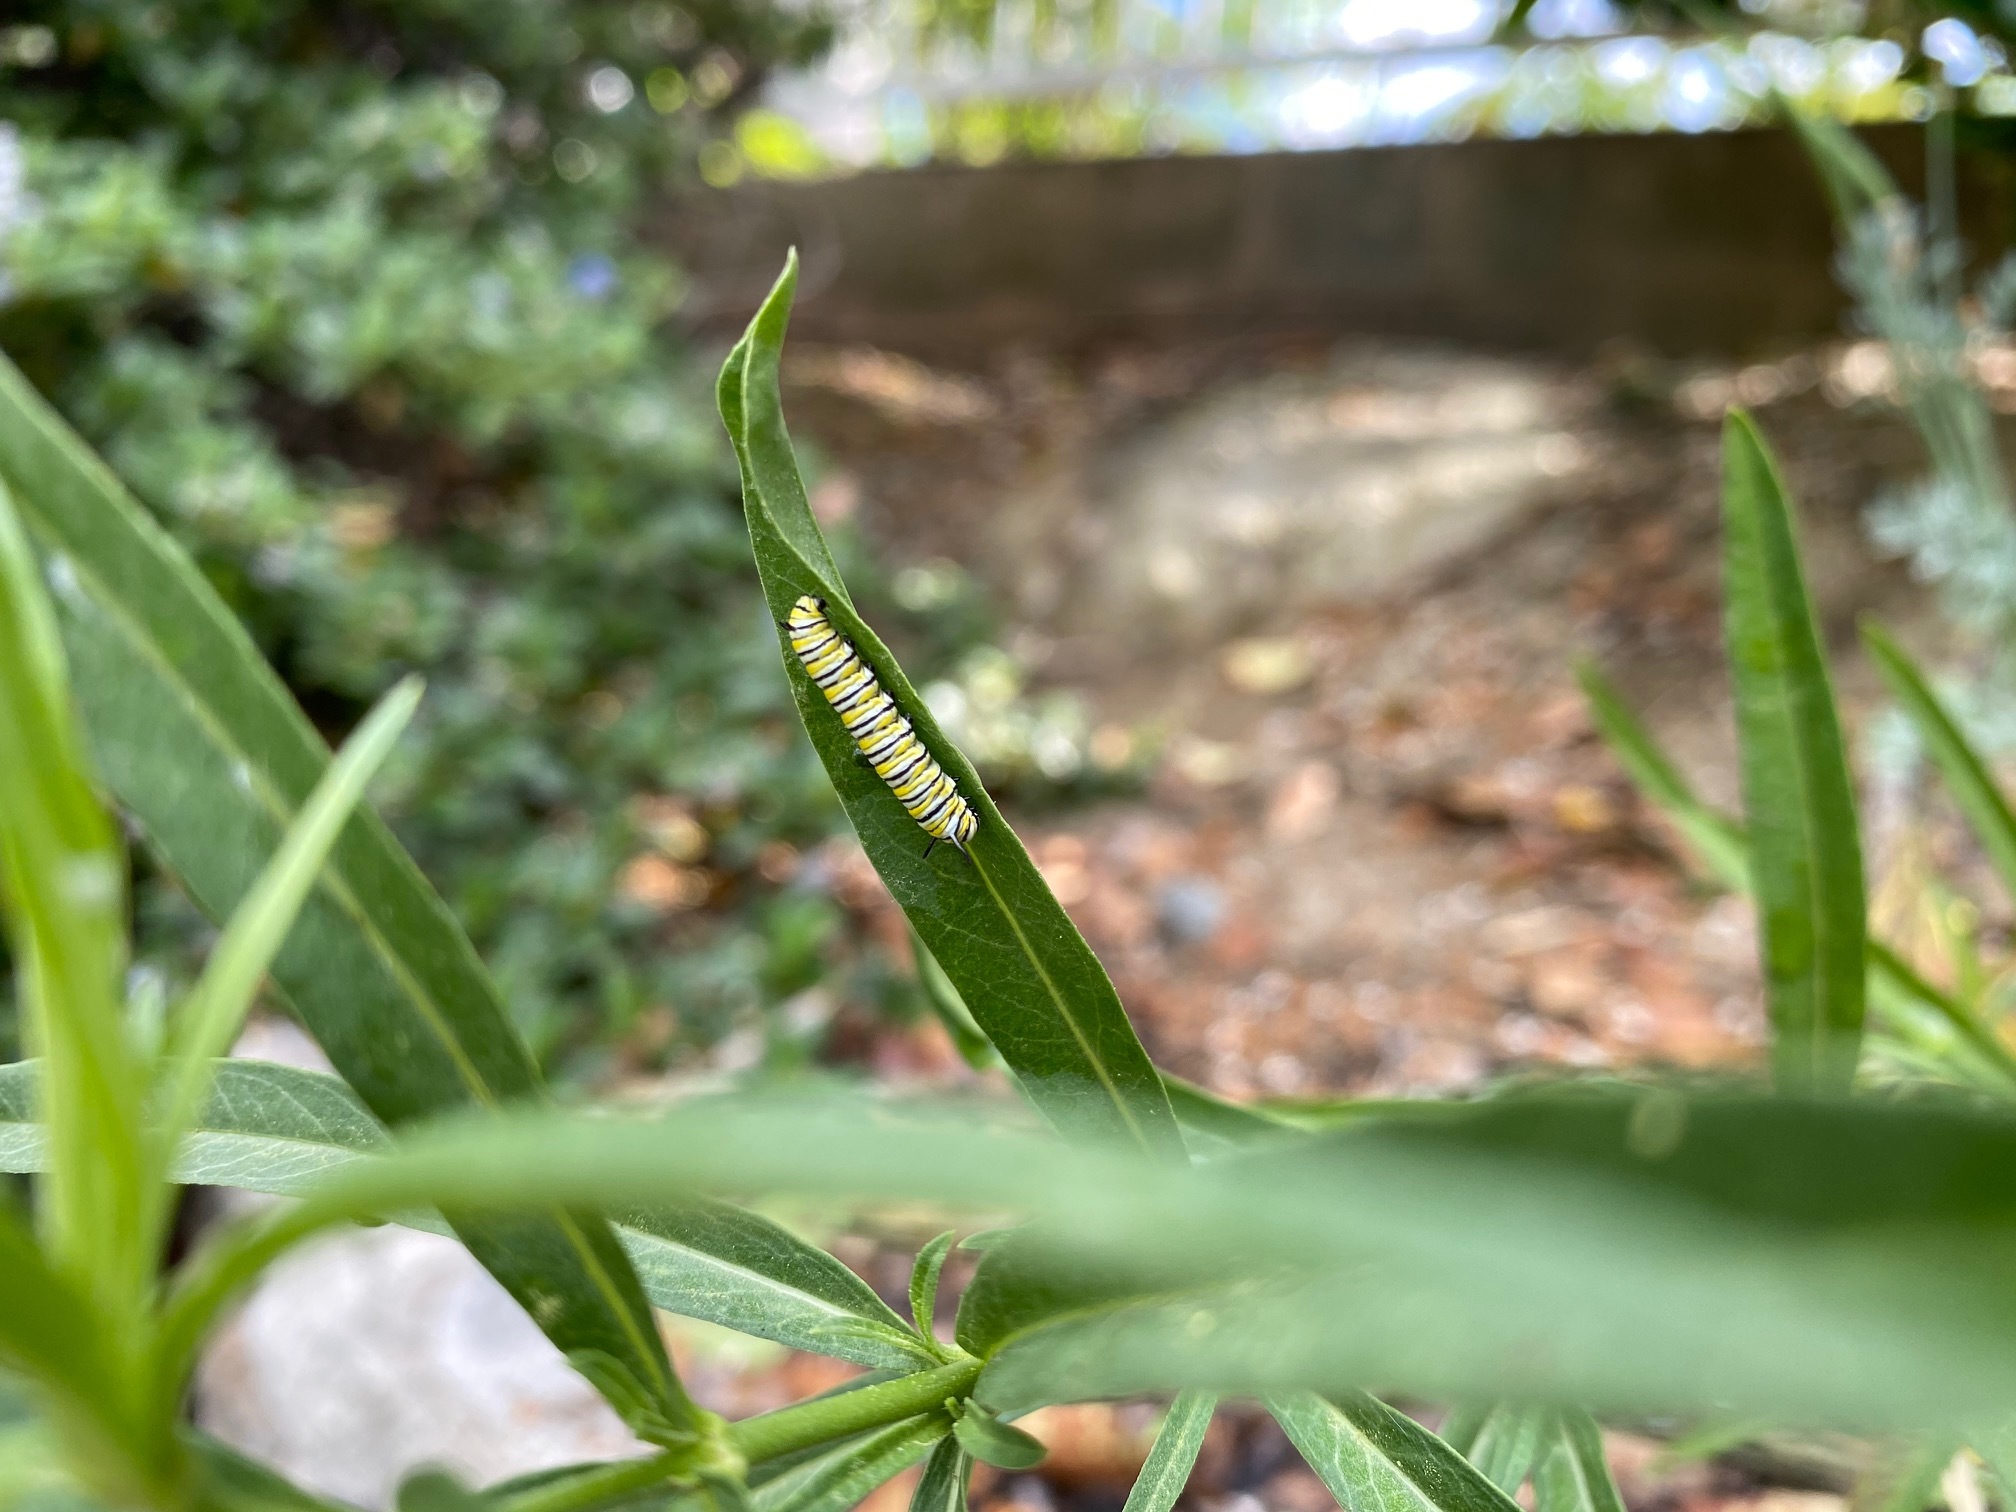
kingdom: Animalia
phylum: Arthropoda
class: Insecta
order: Lepidoptera
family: Nymphalidae
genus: Danaus
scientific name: Danaus plexippus
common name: Monarch
